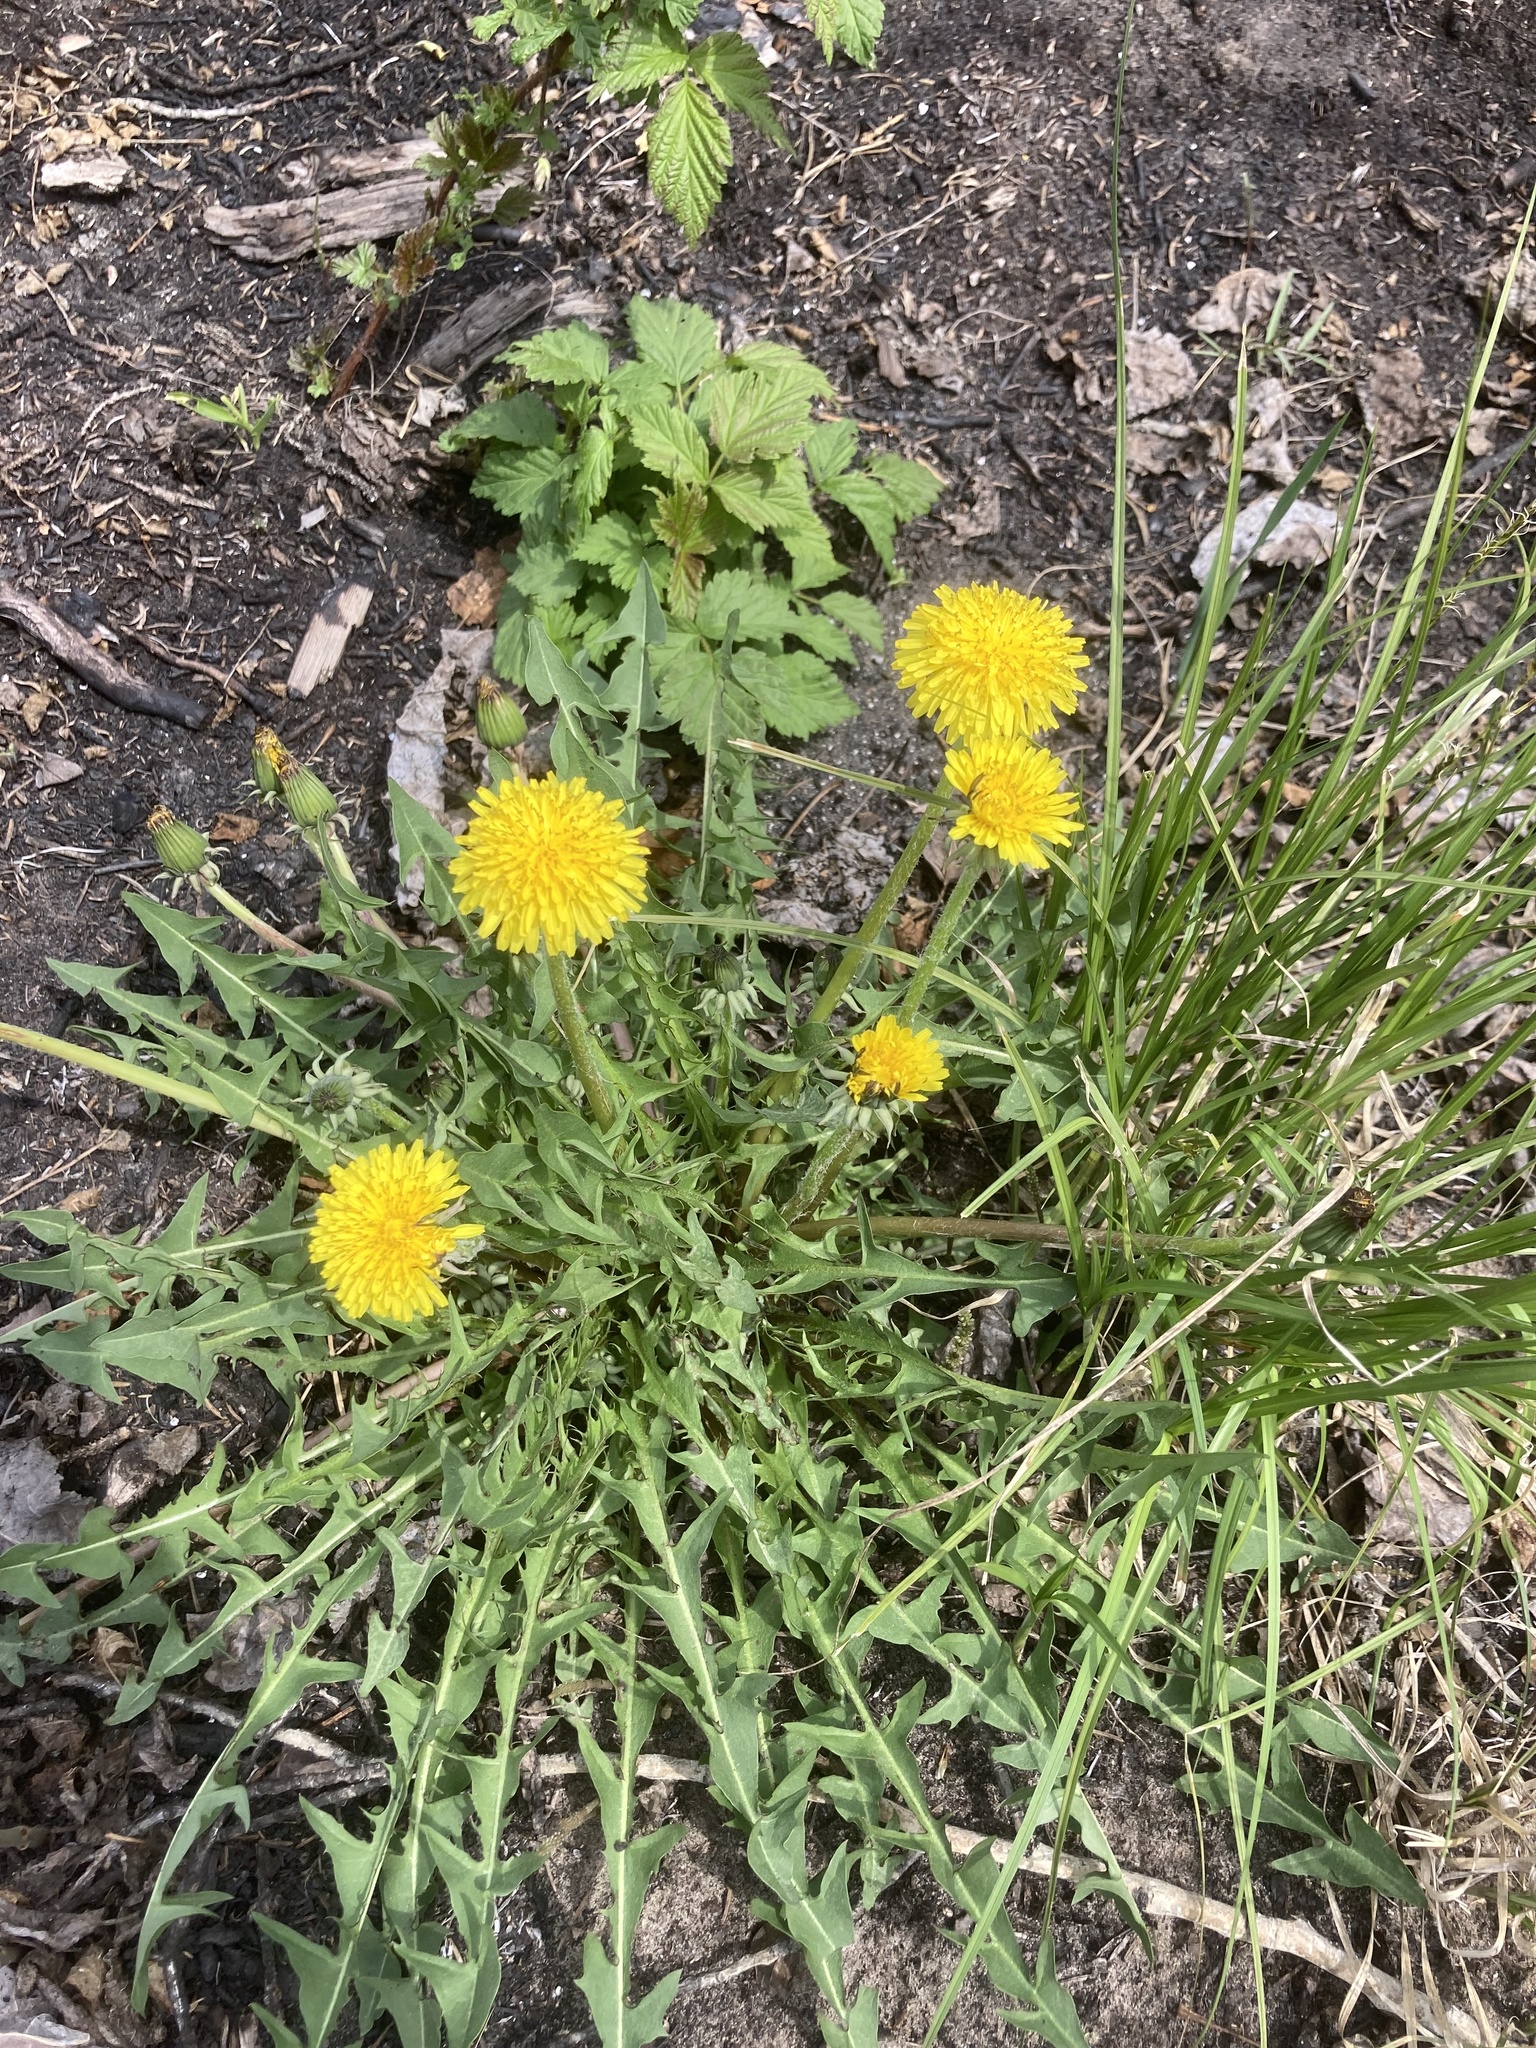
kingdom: Plantae
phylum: Tracheophyta
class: Magnoliopsida
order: Asterales
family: Asteraceae
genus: Taraxacum
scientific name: Taraxacum officinale
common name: Common dandelion
